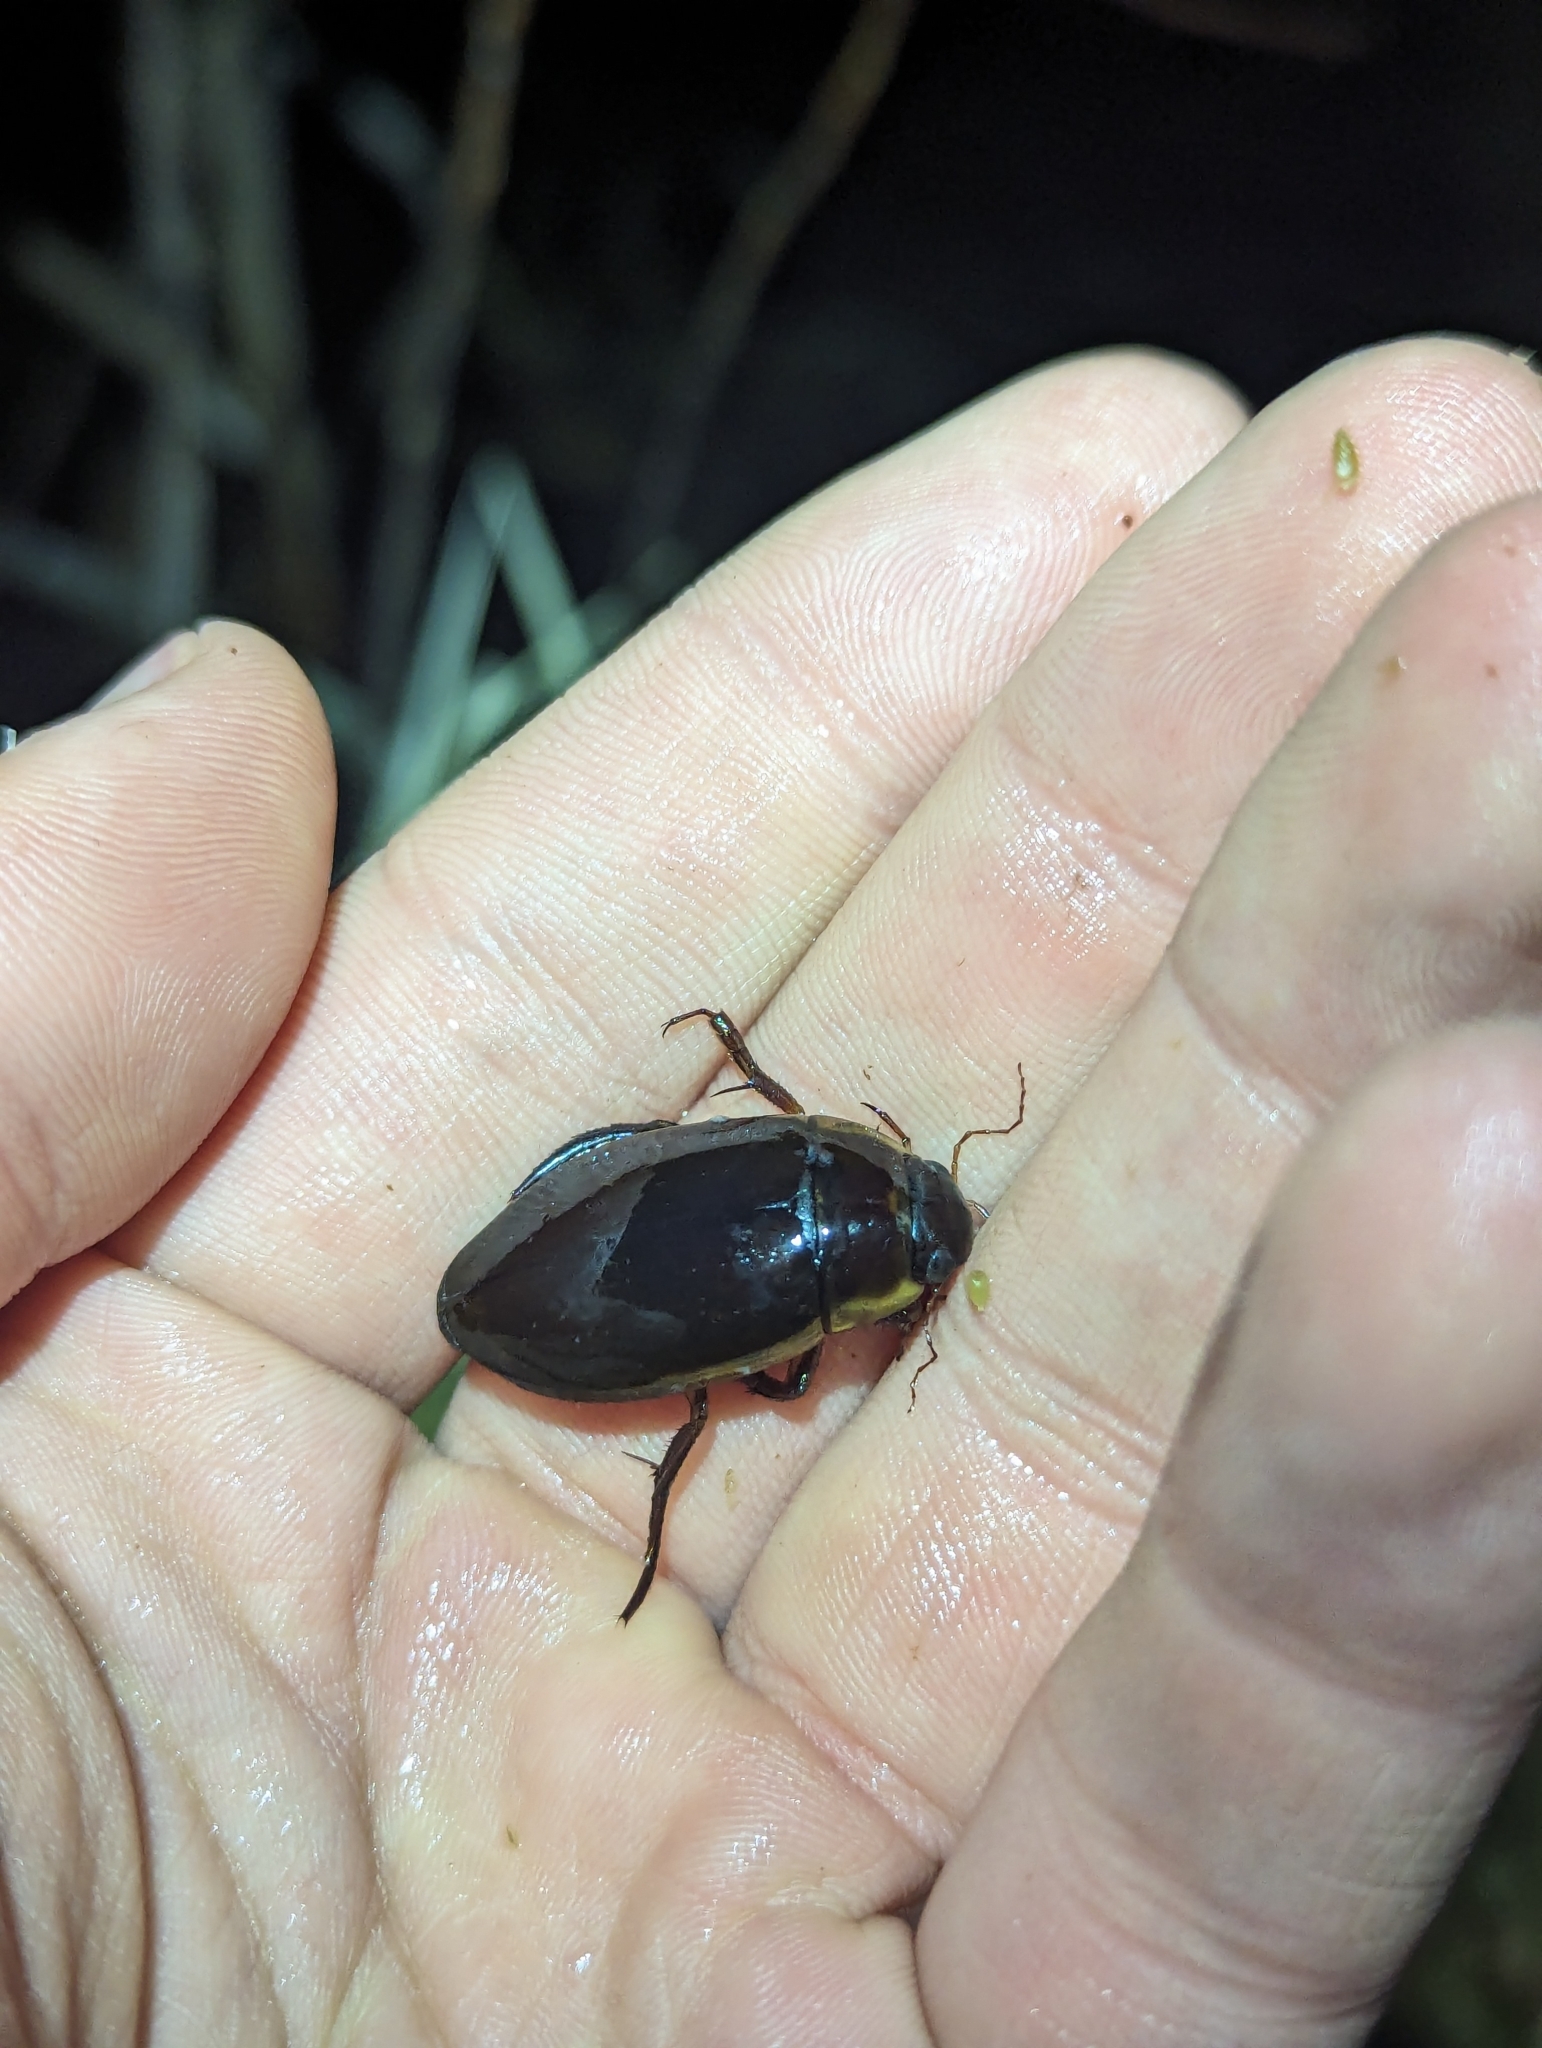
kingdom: Animalia
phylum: Arthropoda
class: Insecta
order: Coleoptera
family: Dytiscidae
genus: Dytiscus
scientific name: Dytiscus fasciventris
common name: Understriped diving beetle
